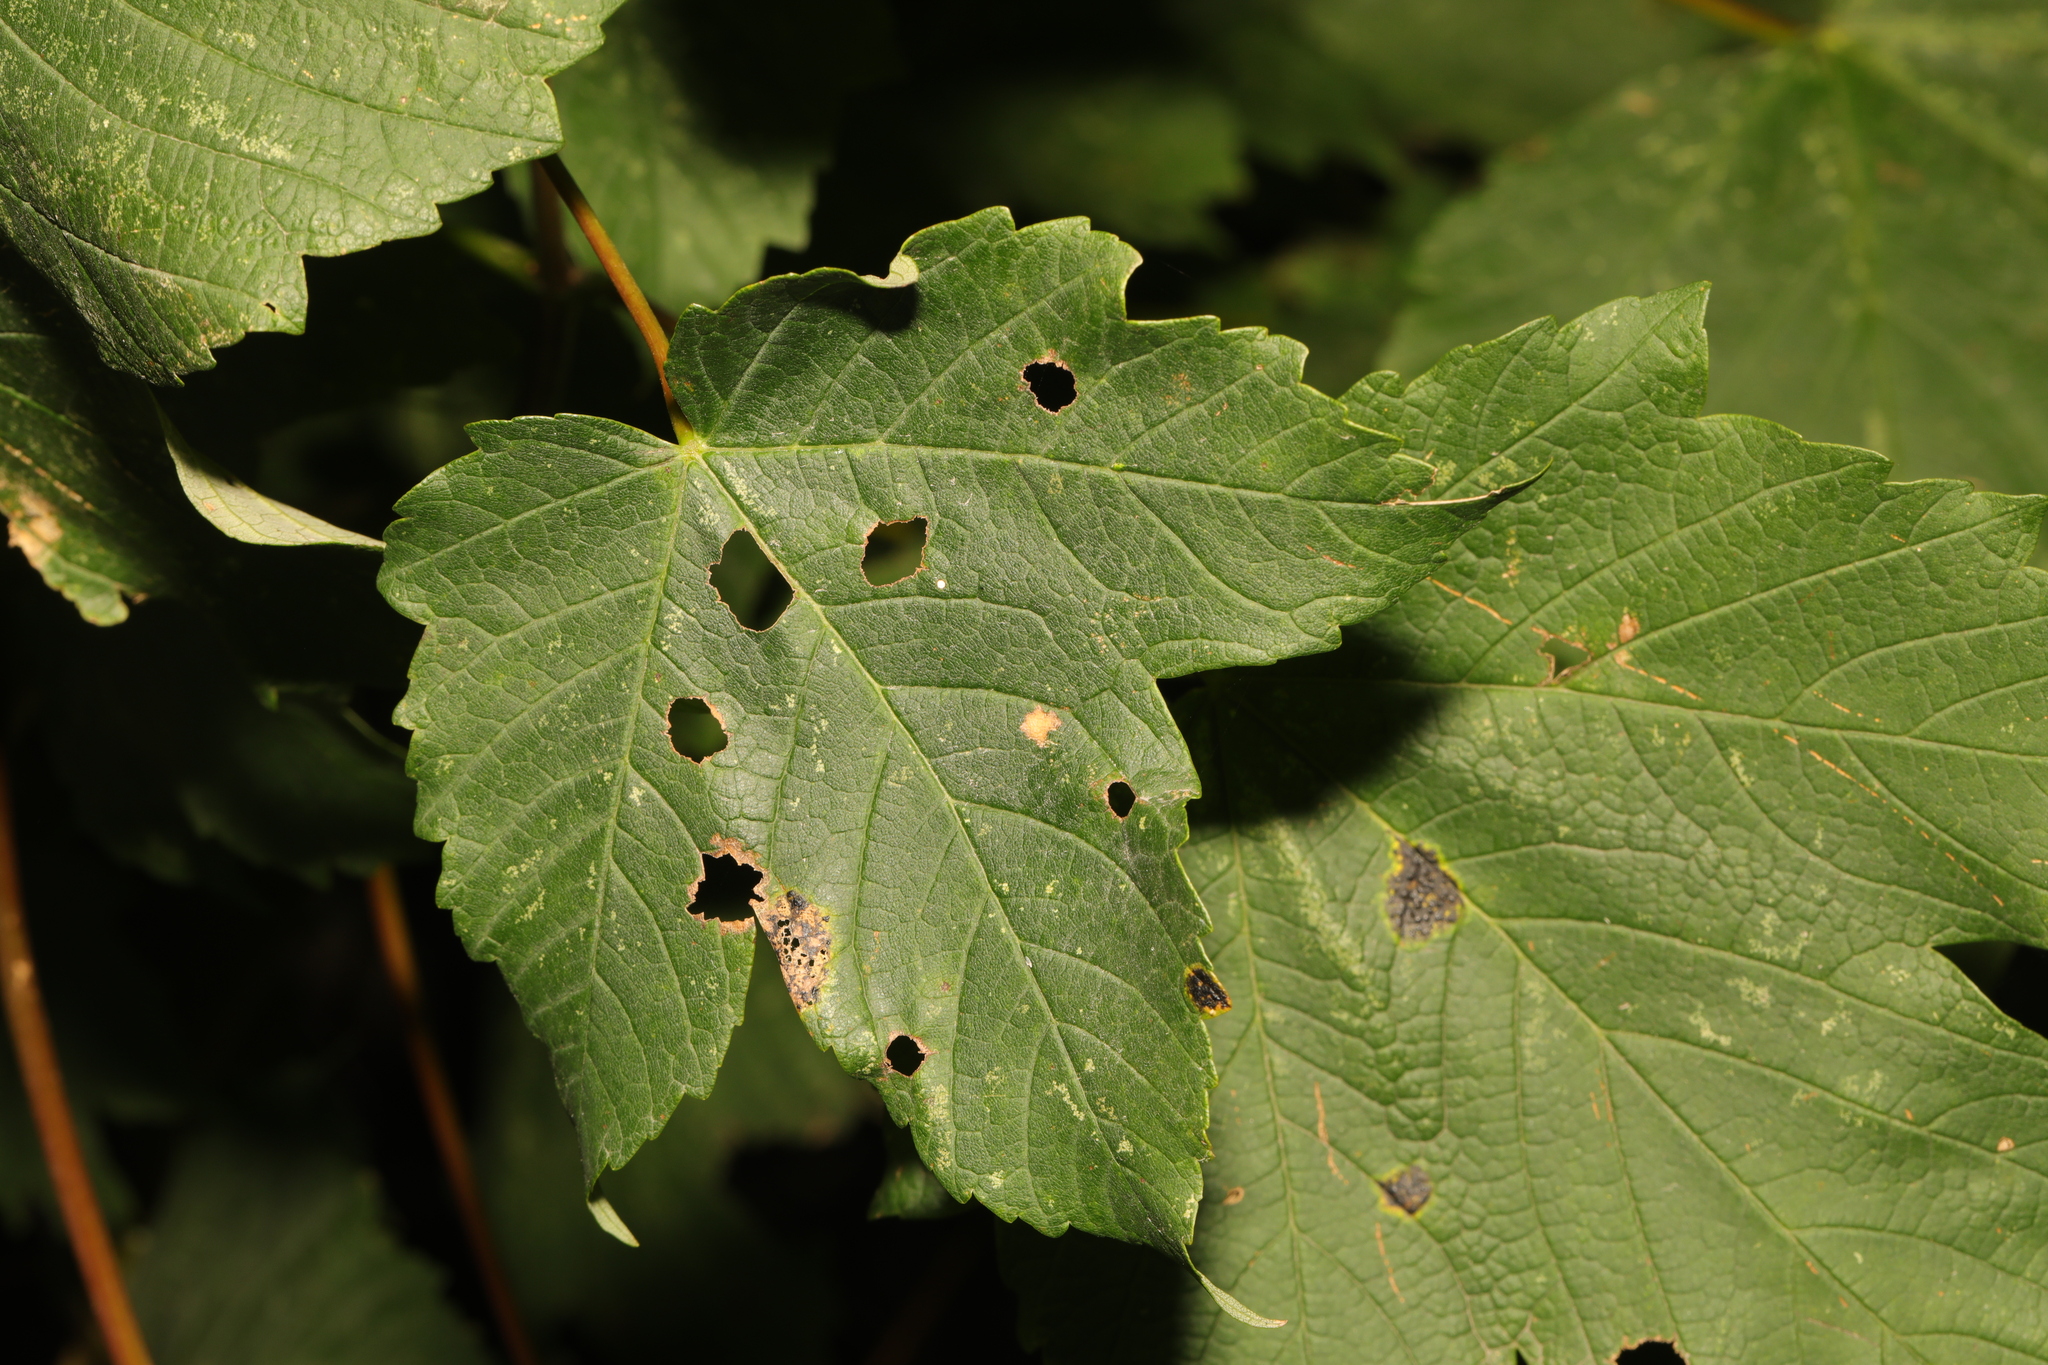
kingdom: Plantae
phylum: Tracheophyta
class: Magnoliopsida
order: Sapindales
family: Sapindaceae
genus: Acer
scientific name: Acer pseudoplatanus
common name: Sycamore
